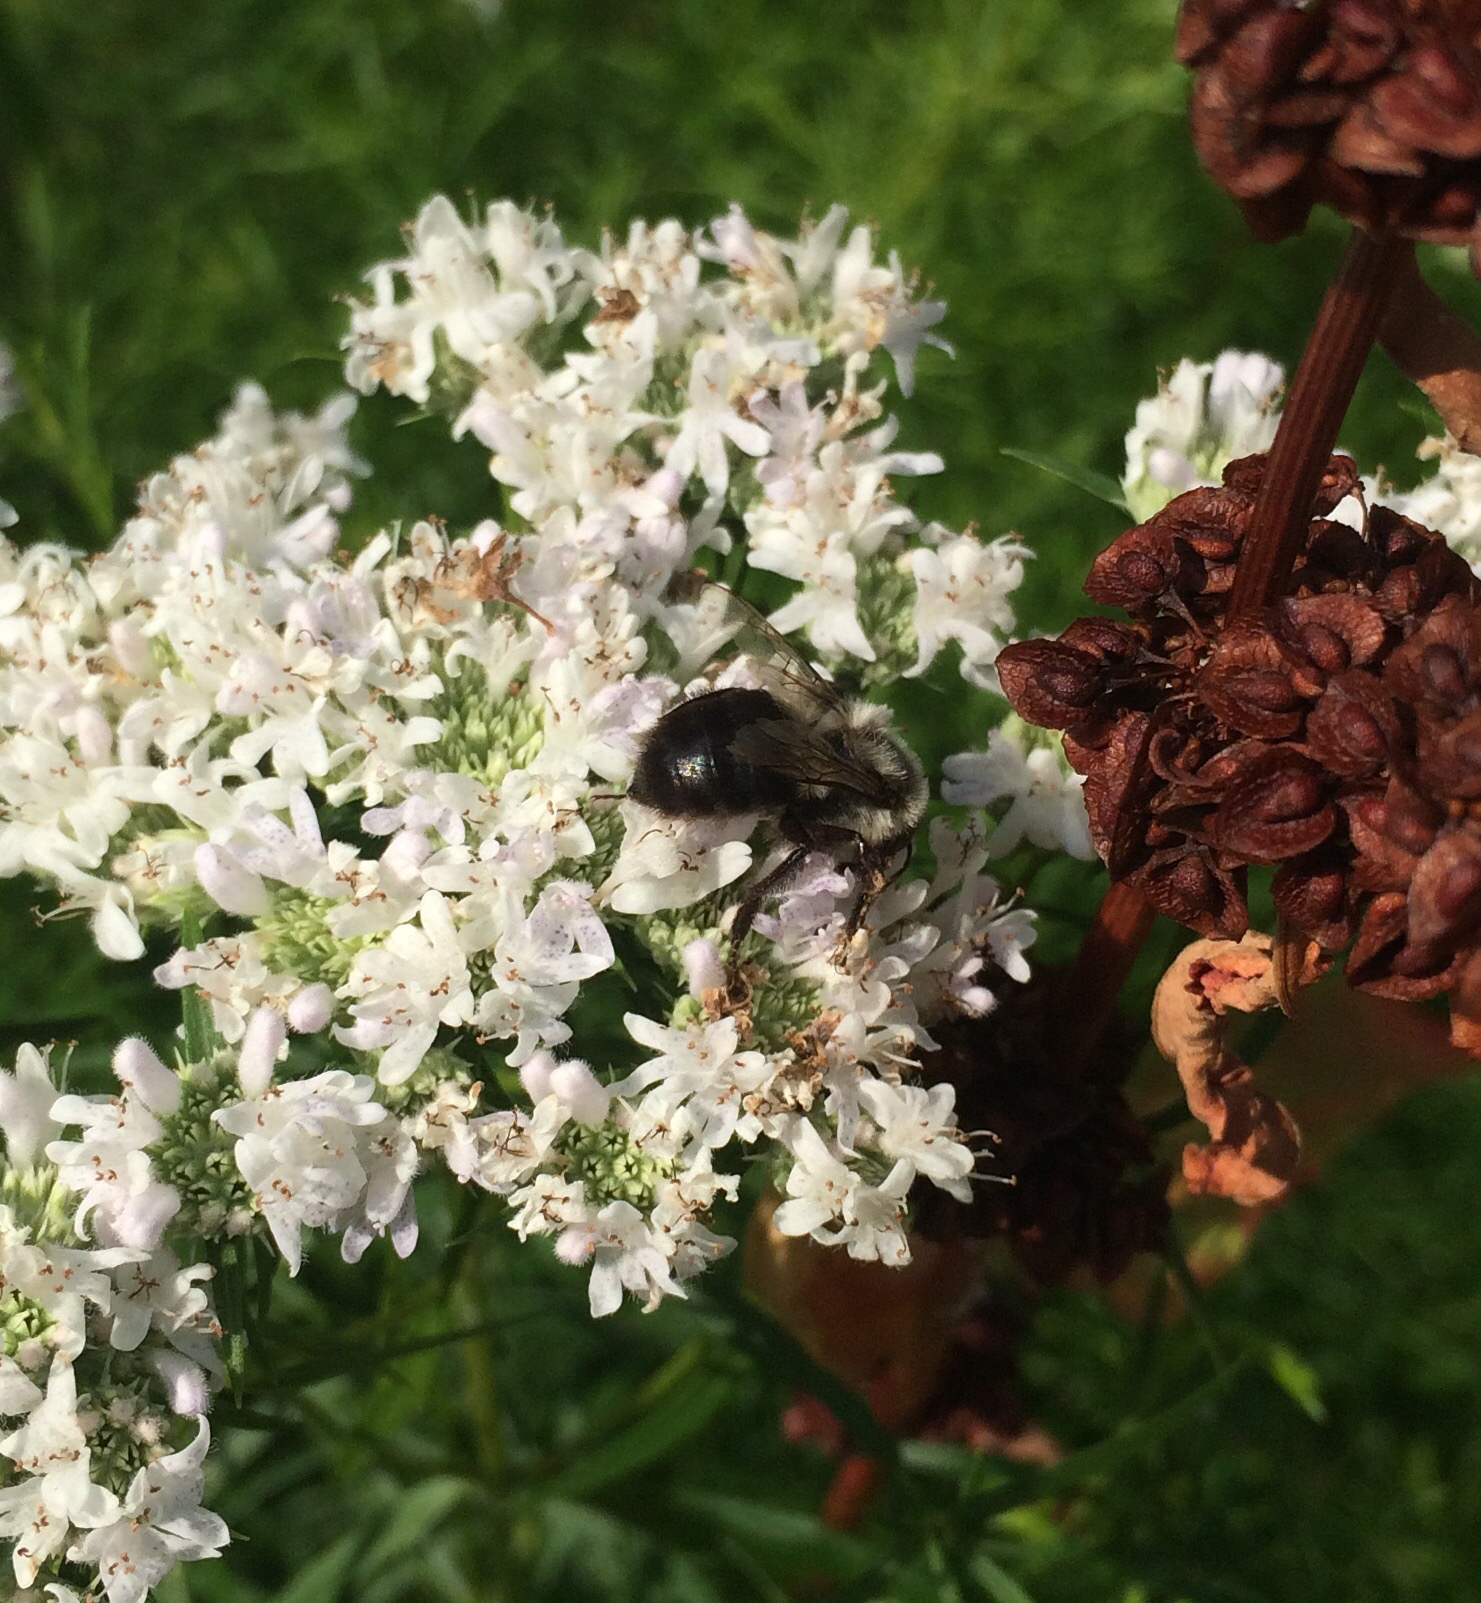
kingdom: Animalia
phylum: Arthropoda
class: Insecta
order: Hymenoptera
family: Apidae
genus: Bombus
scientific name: Bombus impatiens
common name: Common eastern bumble bee
